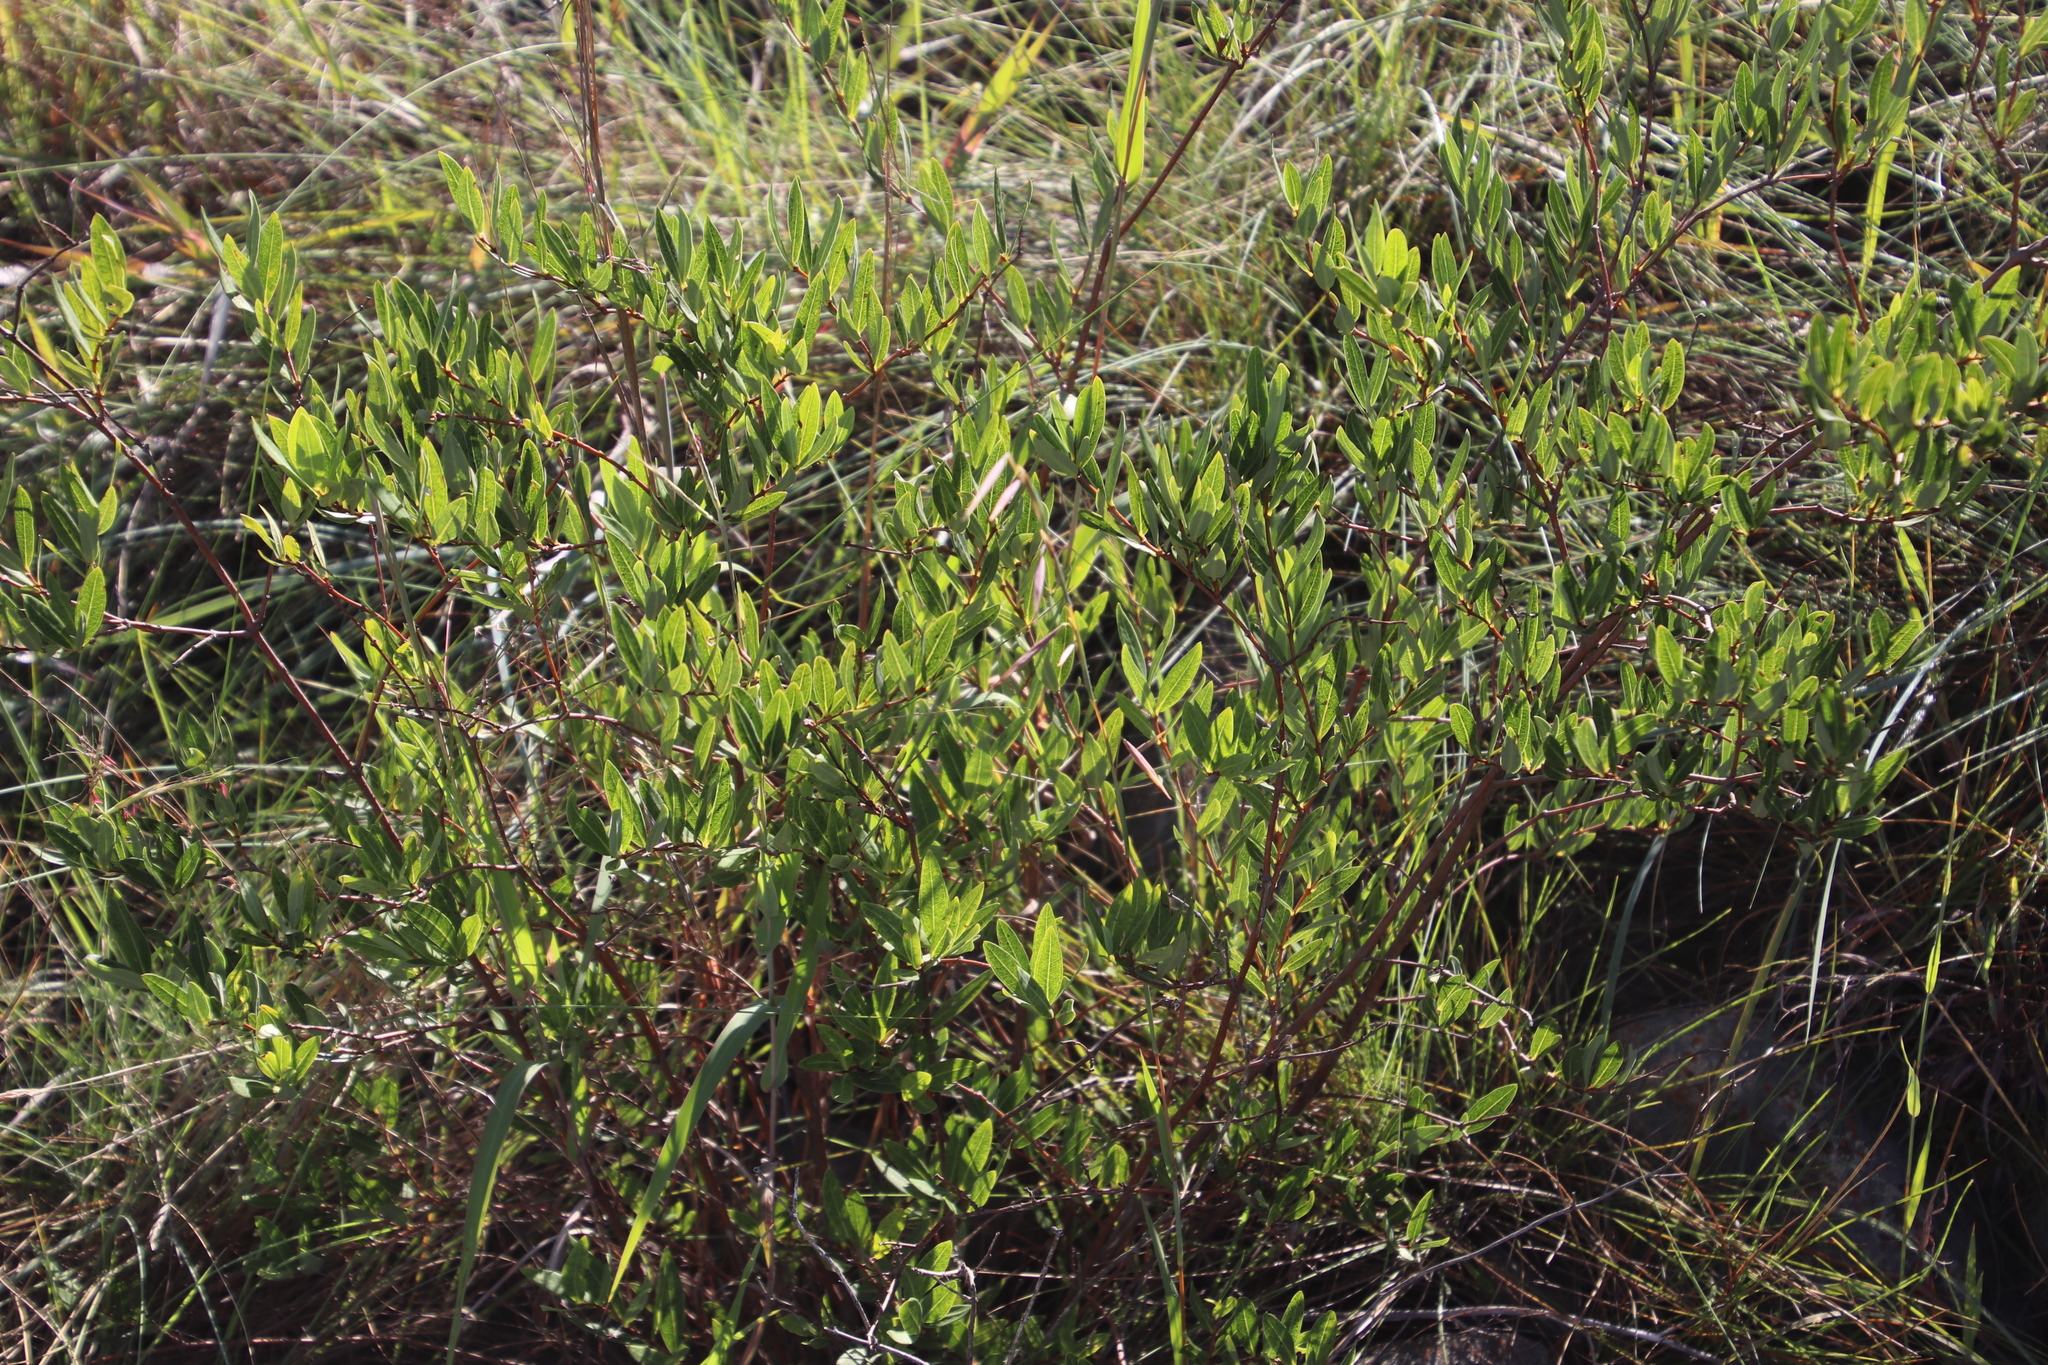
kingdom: Plantae
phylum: Tracheophyta
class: Magnoliopsida
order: Gentianales
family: Apocynaceae
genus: Cryptolepis
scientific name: Cryptolepis oblongifolia
